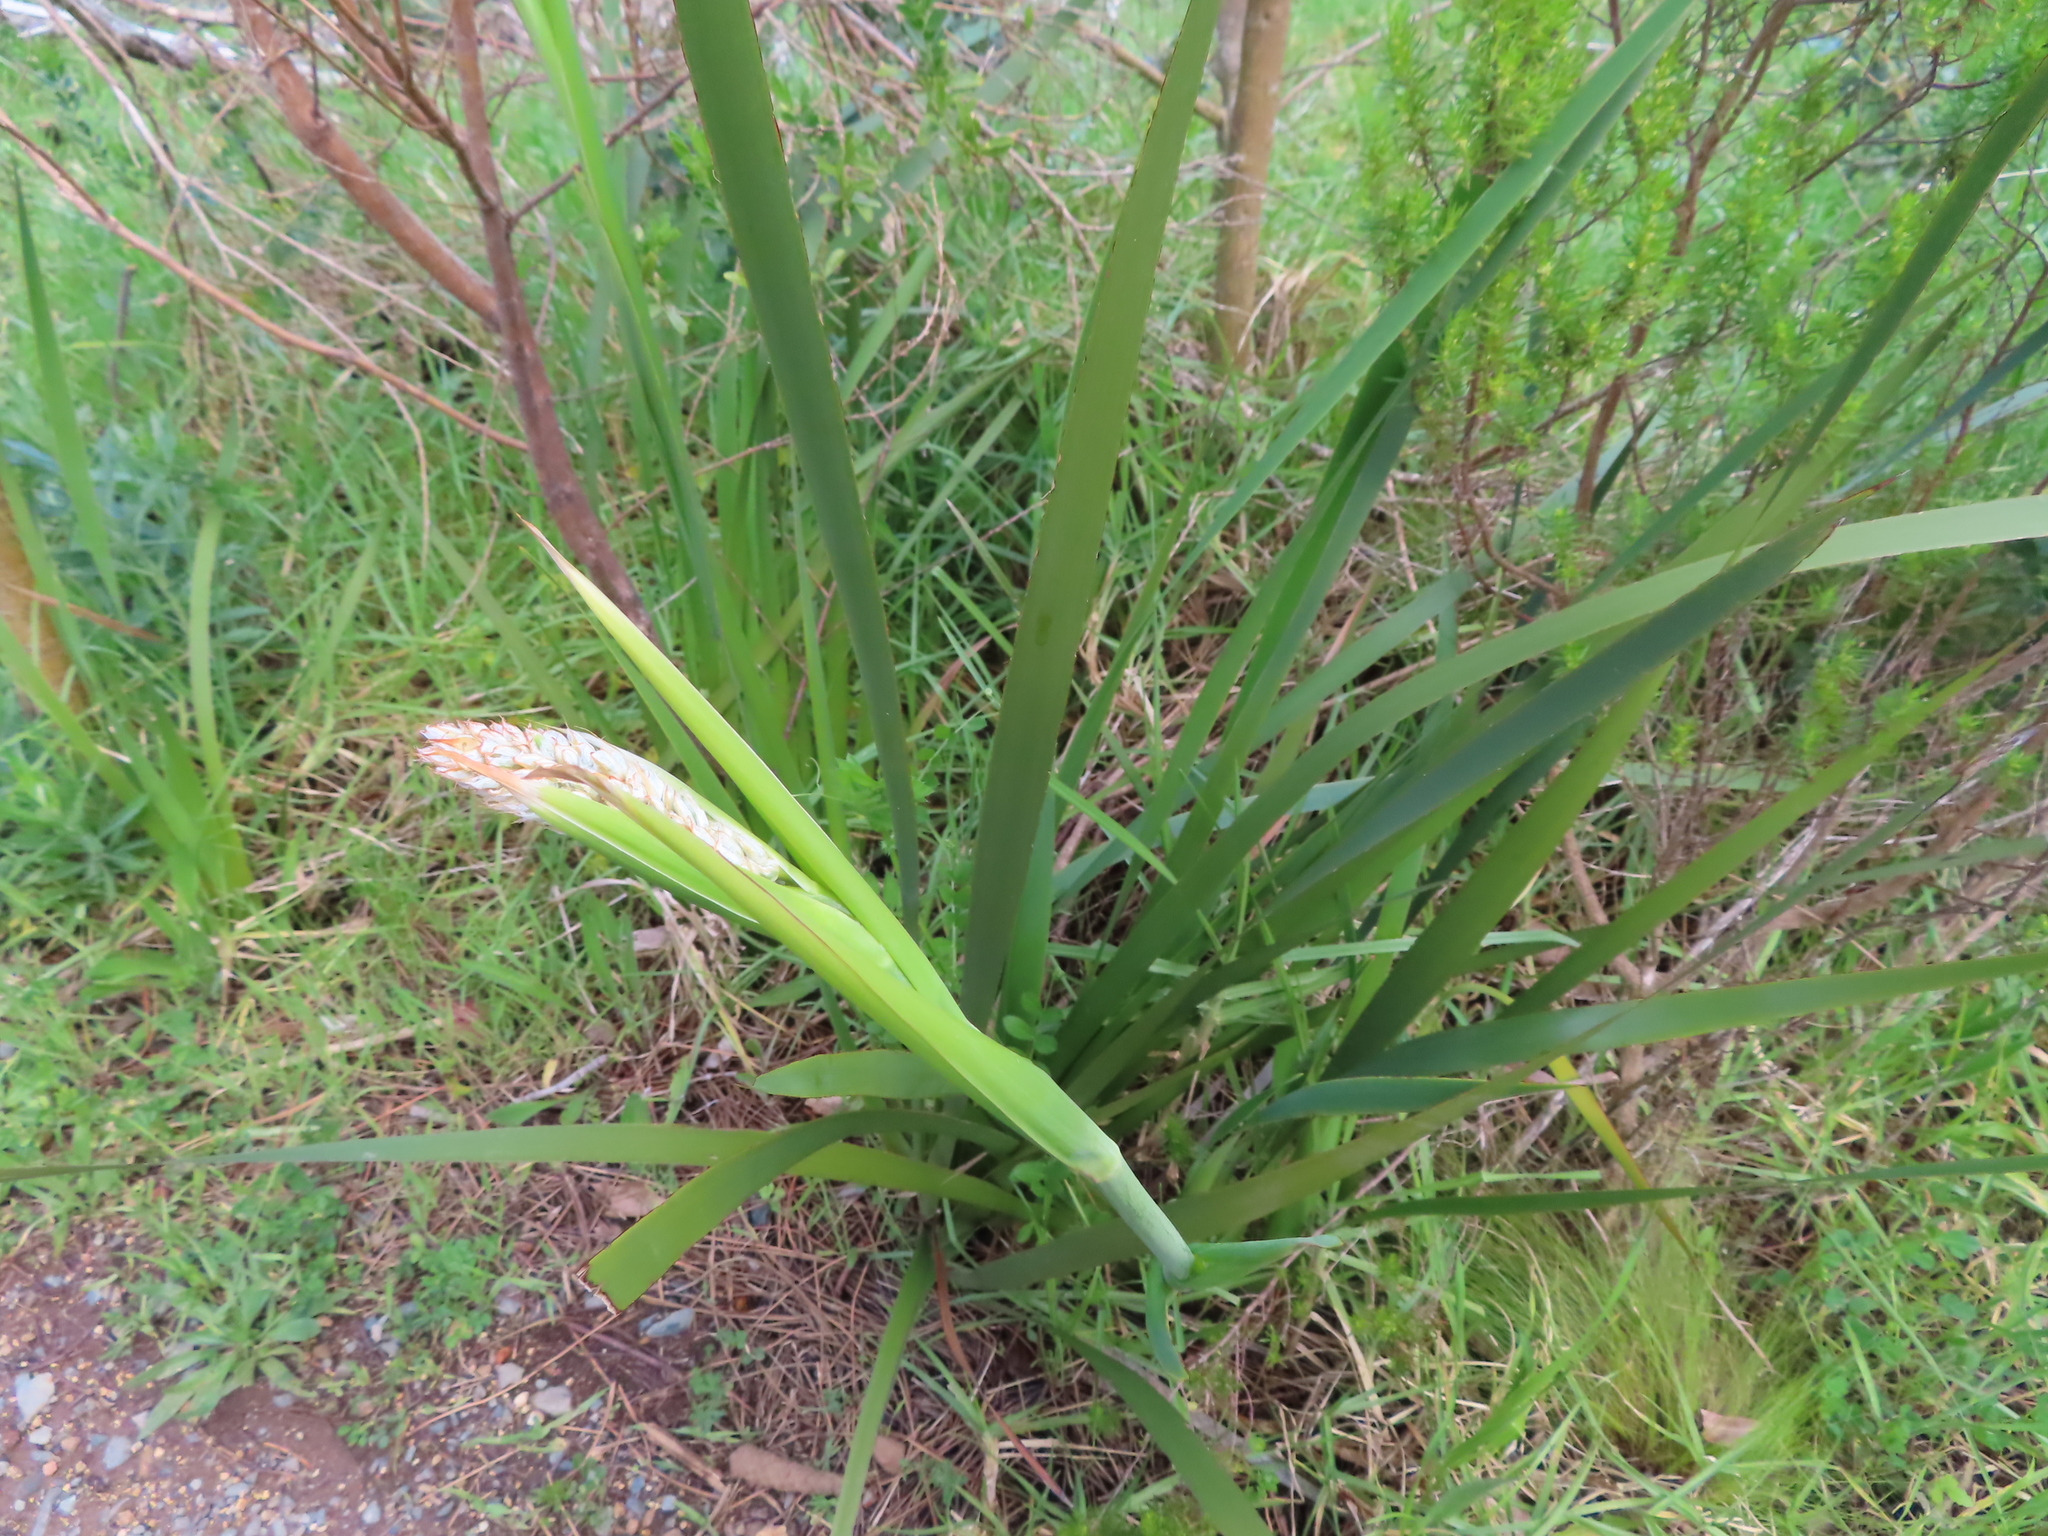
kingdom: Plantae
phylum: Tracheophyta
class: Liliopsida
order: Asparagales
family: Iridaceae
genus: Aristea
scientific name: Aristea capitata
